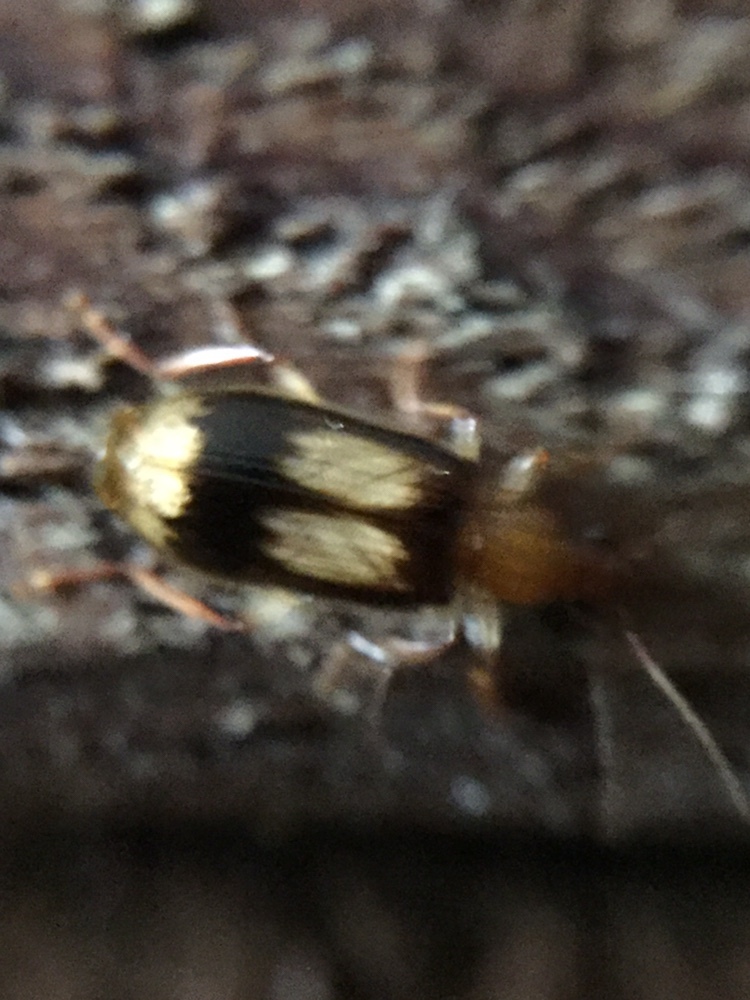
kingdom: Animalia
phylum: Arthropoda
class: Insecta
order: Coleoptera
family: Carabidae
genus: Trigonothops
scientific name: Trigonothops pacificus
